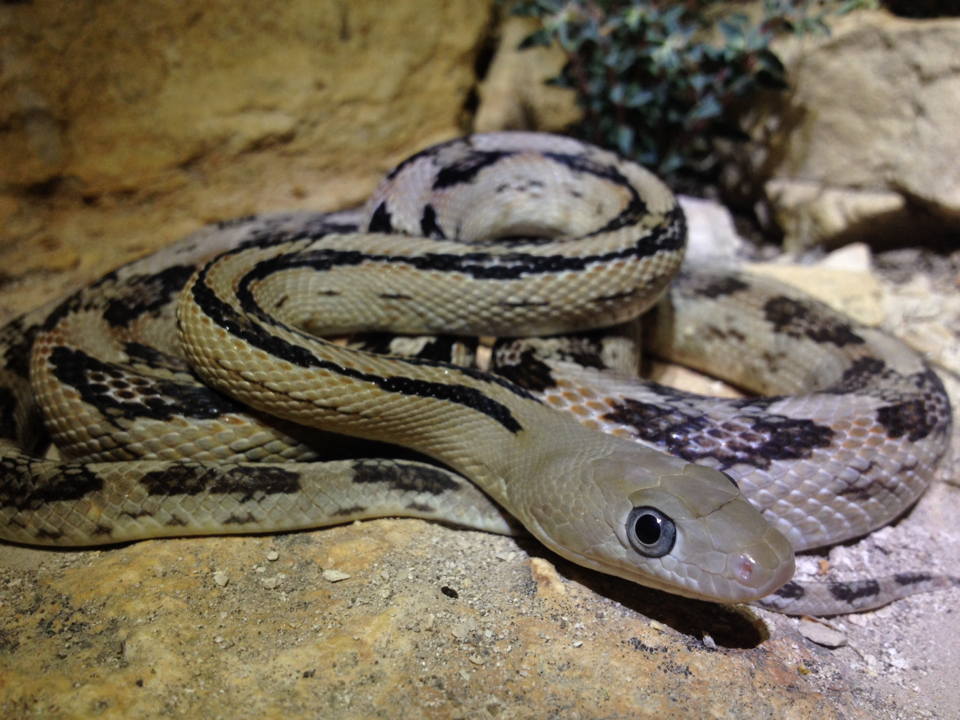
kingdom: Animalia
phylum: Chordata
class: Squamata
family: Colubridae
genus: Bogertophis
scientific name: Bogertophis subocularis
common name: Trans-pecos rat snake
